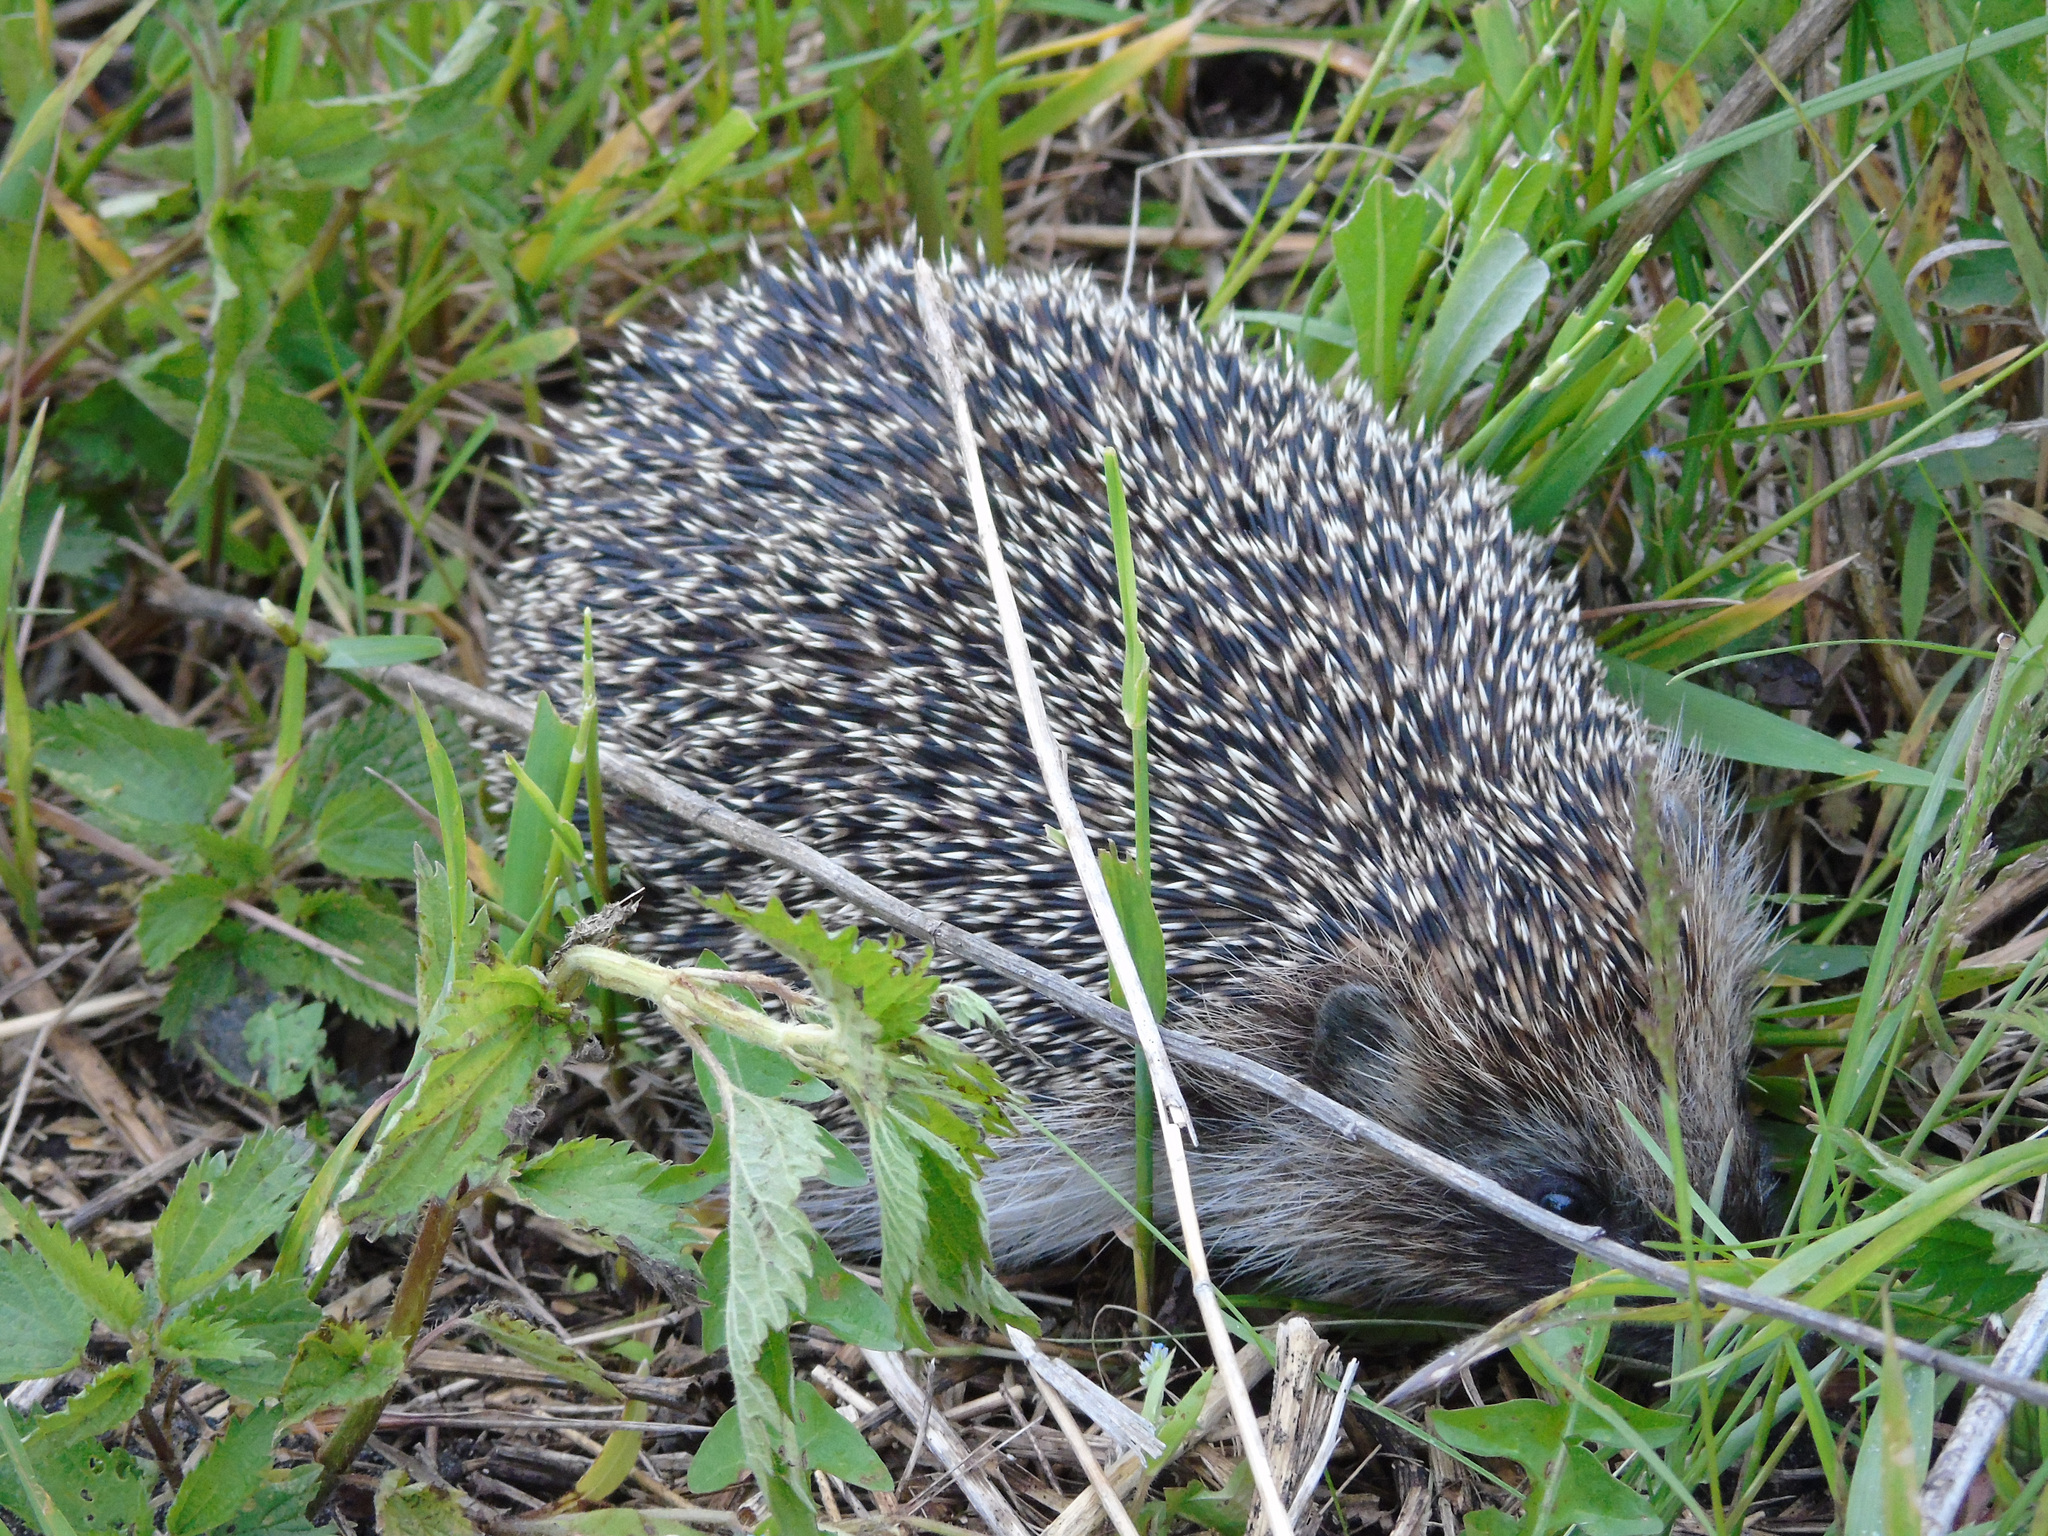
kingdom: Animalia
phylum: Chordata
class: Mammalia
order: Erinaceomorpha
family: Erinaceidae
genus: Erinaceus
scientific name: Erinaceus roumanicus
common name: Northern white-breasted hedgehog
